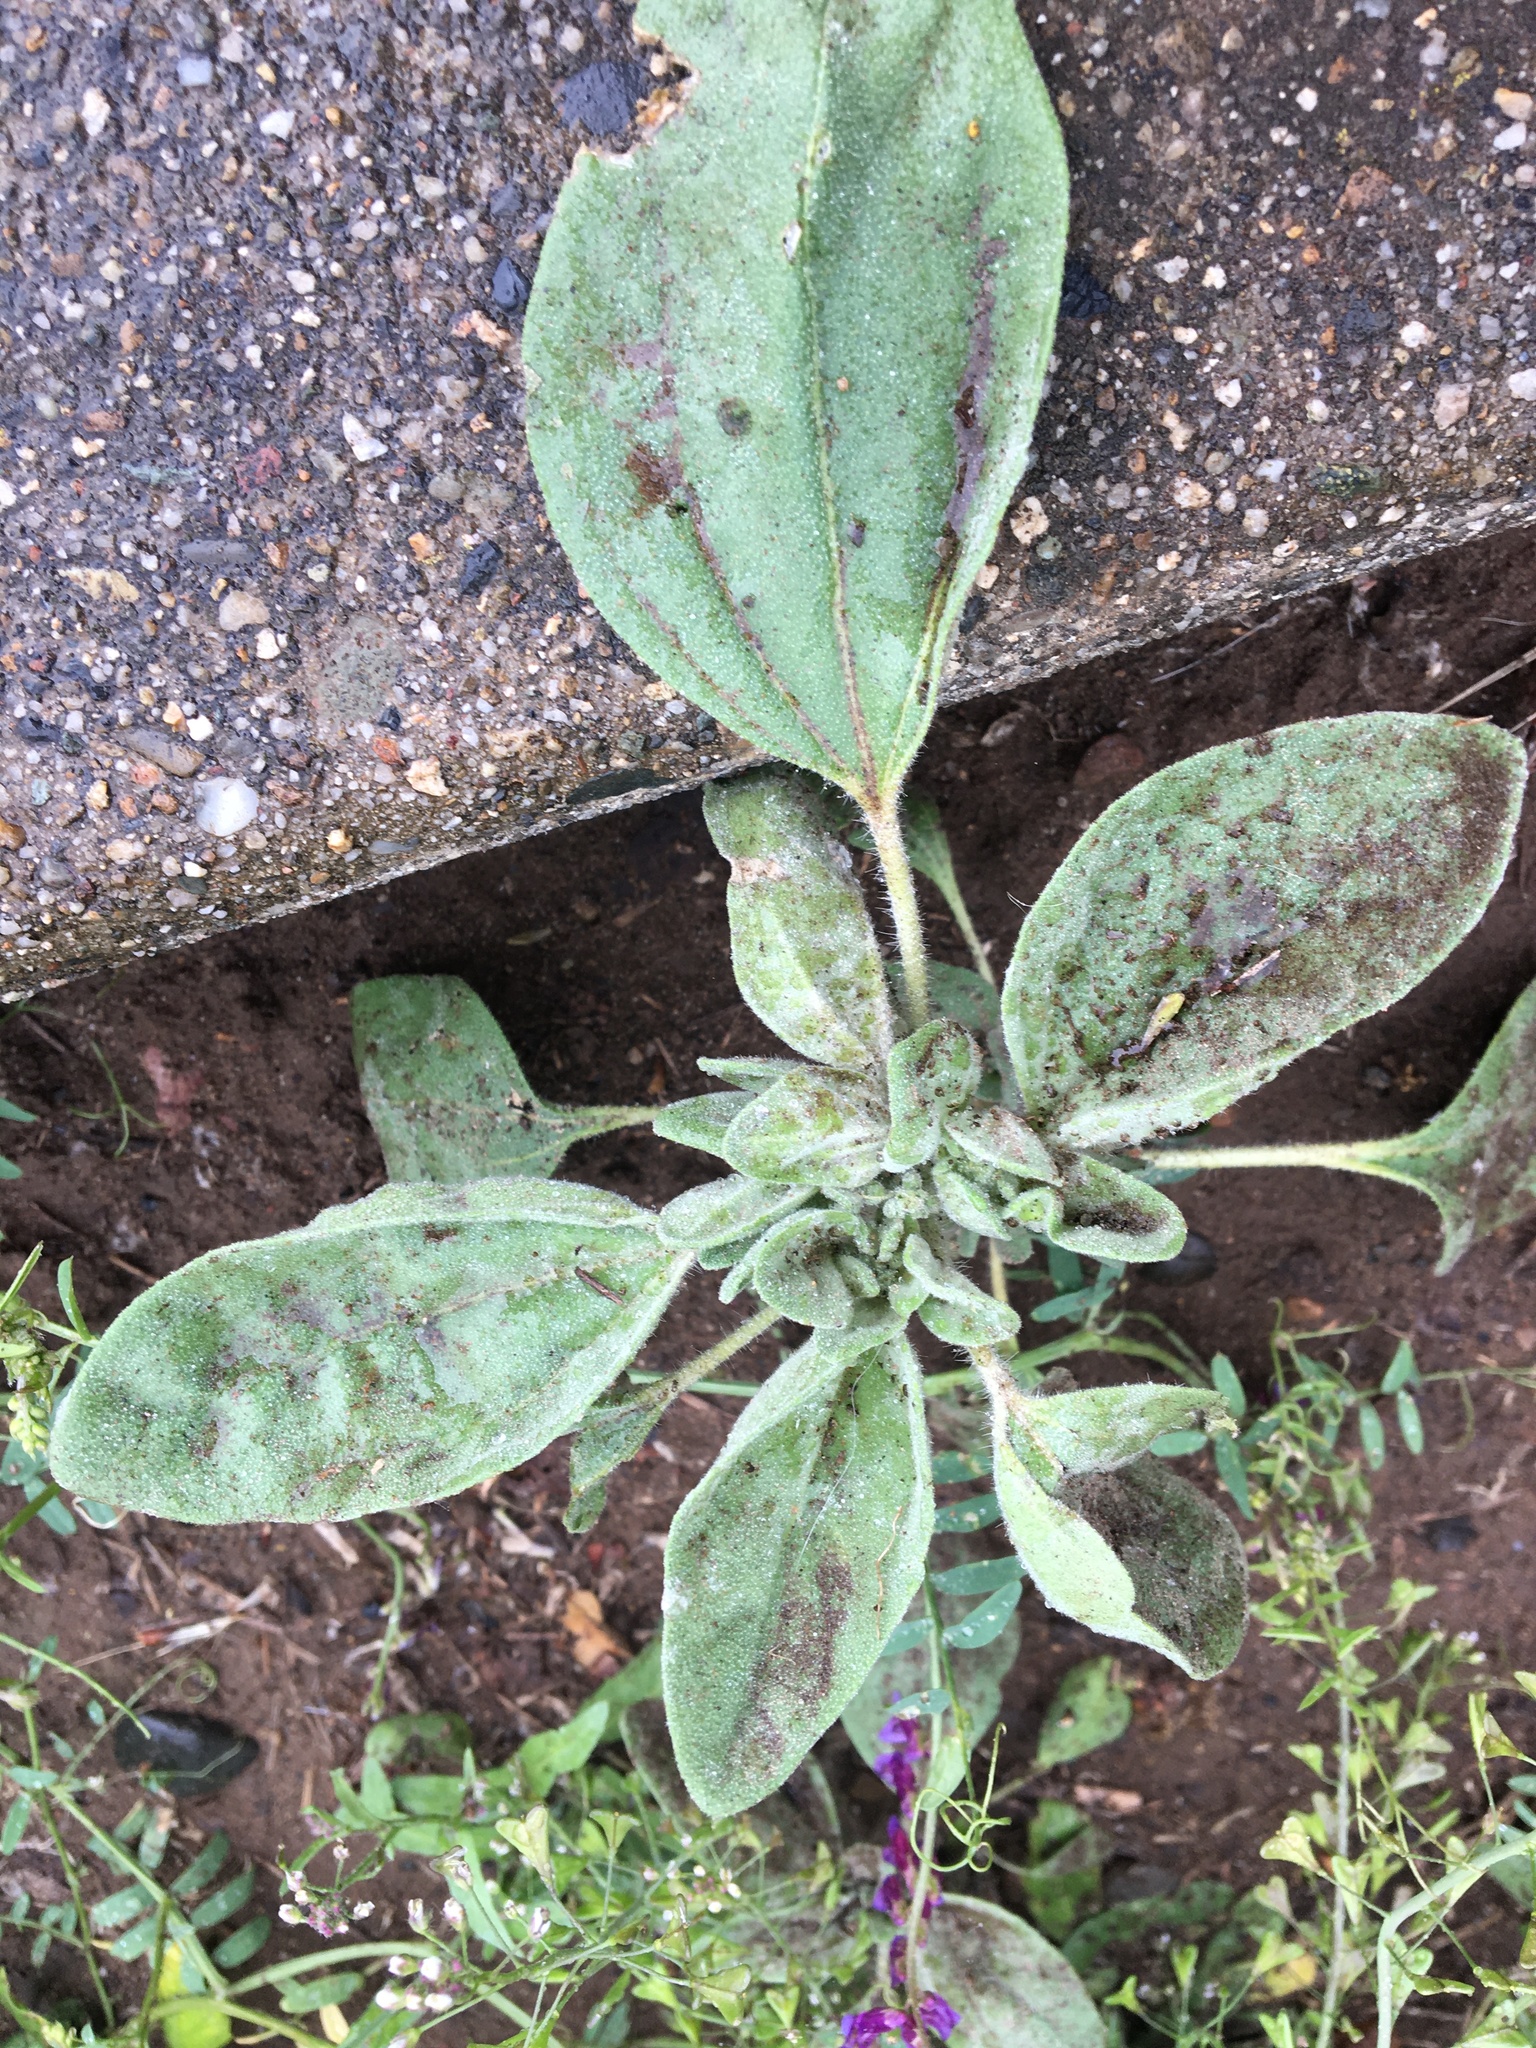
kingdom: Plantae
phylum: Tracheophyta
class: Magnoliopsida
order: Malpighiales
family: Euphorbiaceae
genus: Croton
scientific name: Croton setiger
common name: Dove weed
